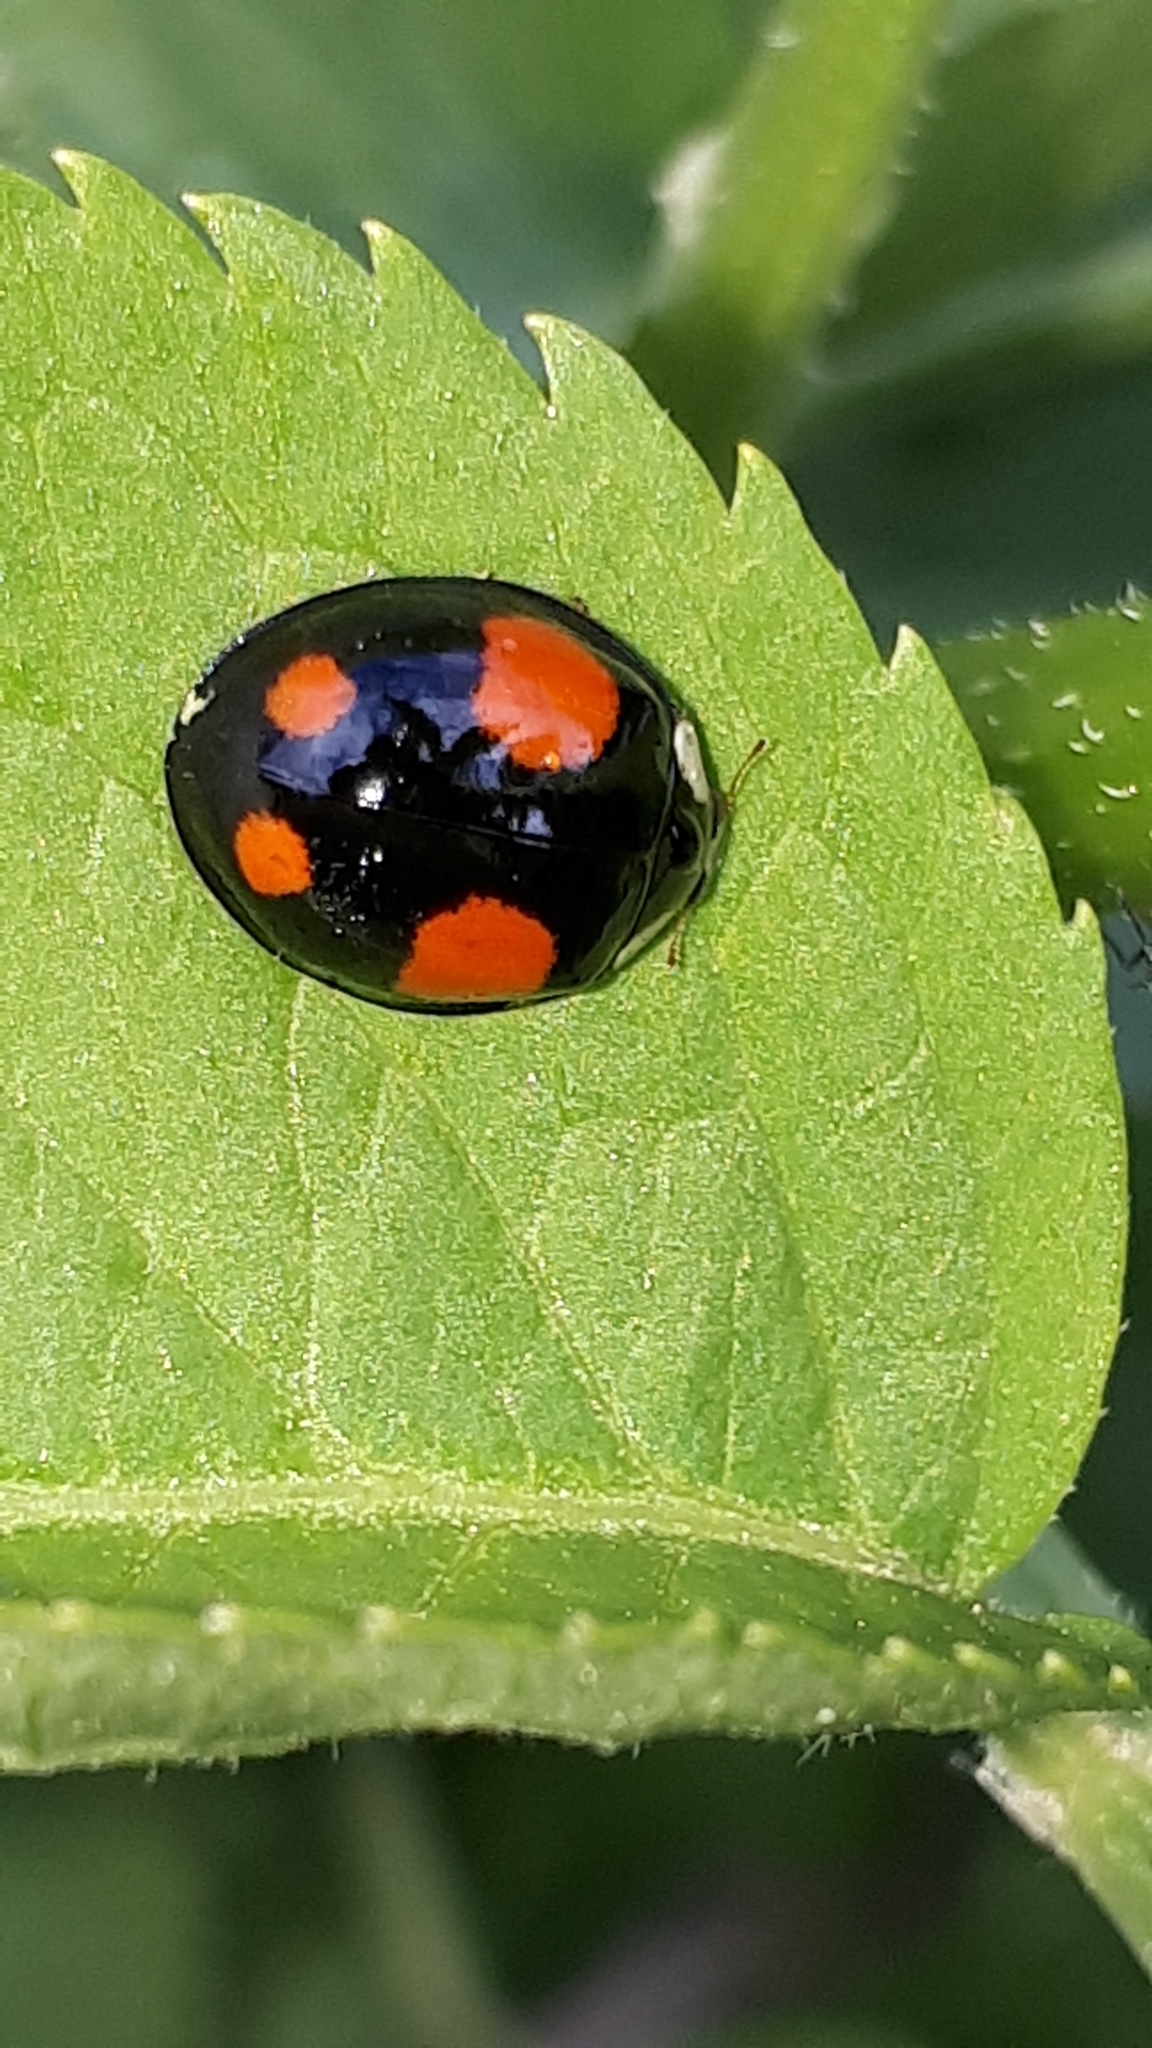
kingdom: Animalia
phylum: Arthropoda
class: Insecta
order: Coleoptera
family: Coccinellidae
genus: Harmonia
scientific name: Harmonia axyridis
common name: Harlequin ladybird
